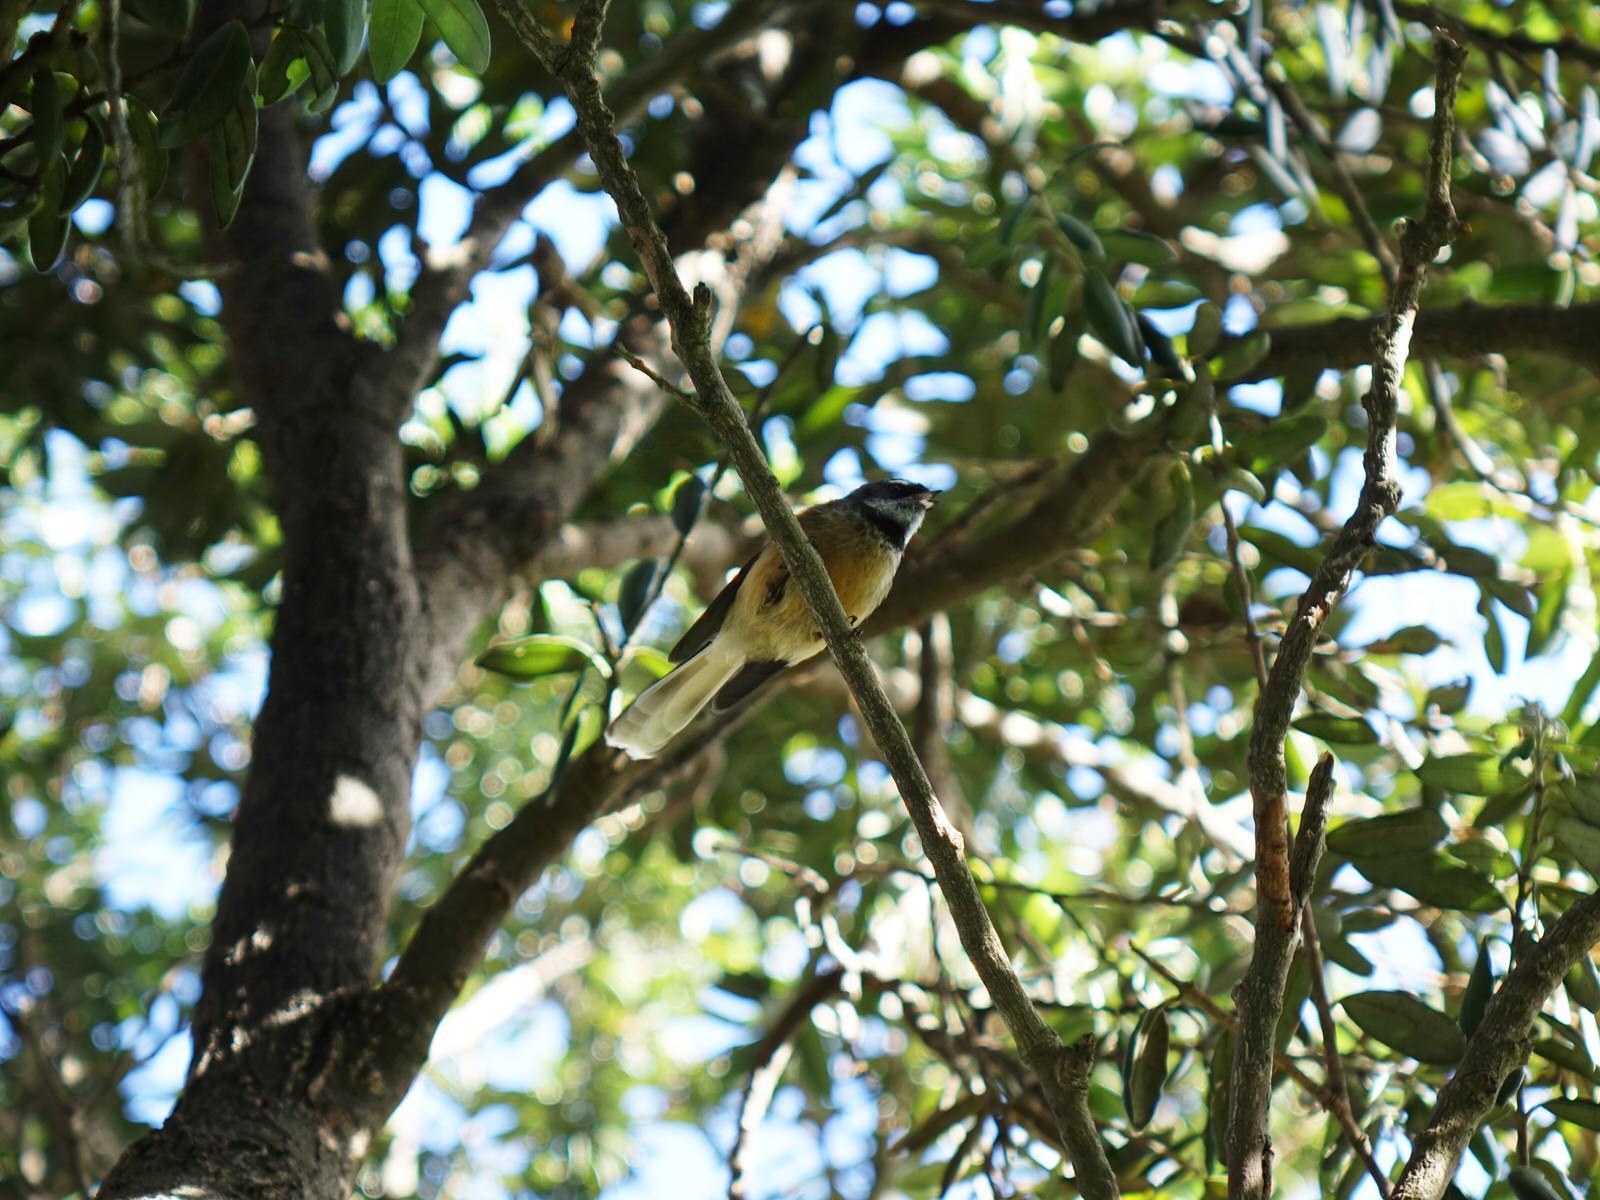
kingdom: Animalia
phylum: Chordata
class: Aves
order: Passeriformes
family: Rhipiduridae
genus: Rhipidura
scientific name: Rhipidura fuliginosa
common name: New zealand fantail
